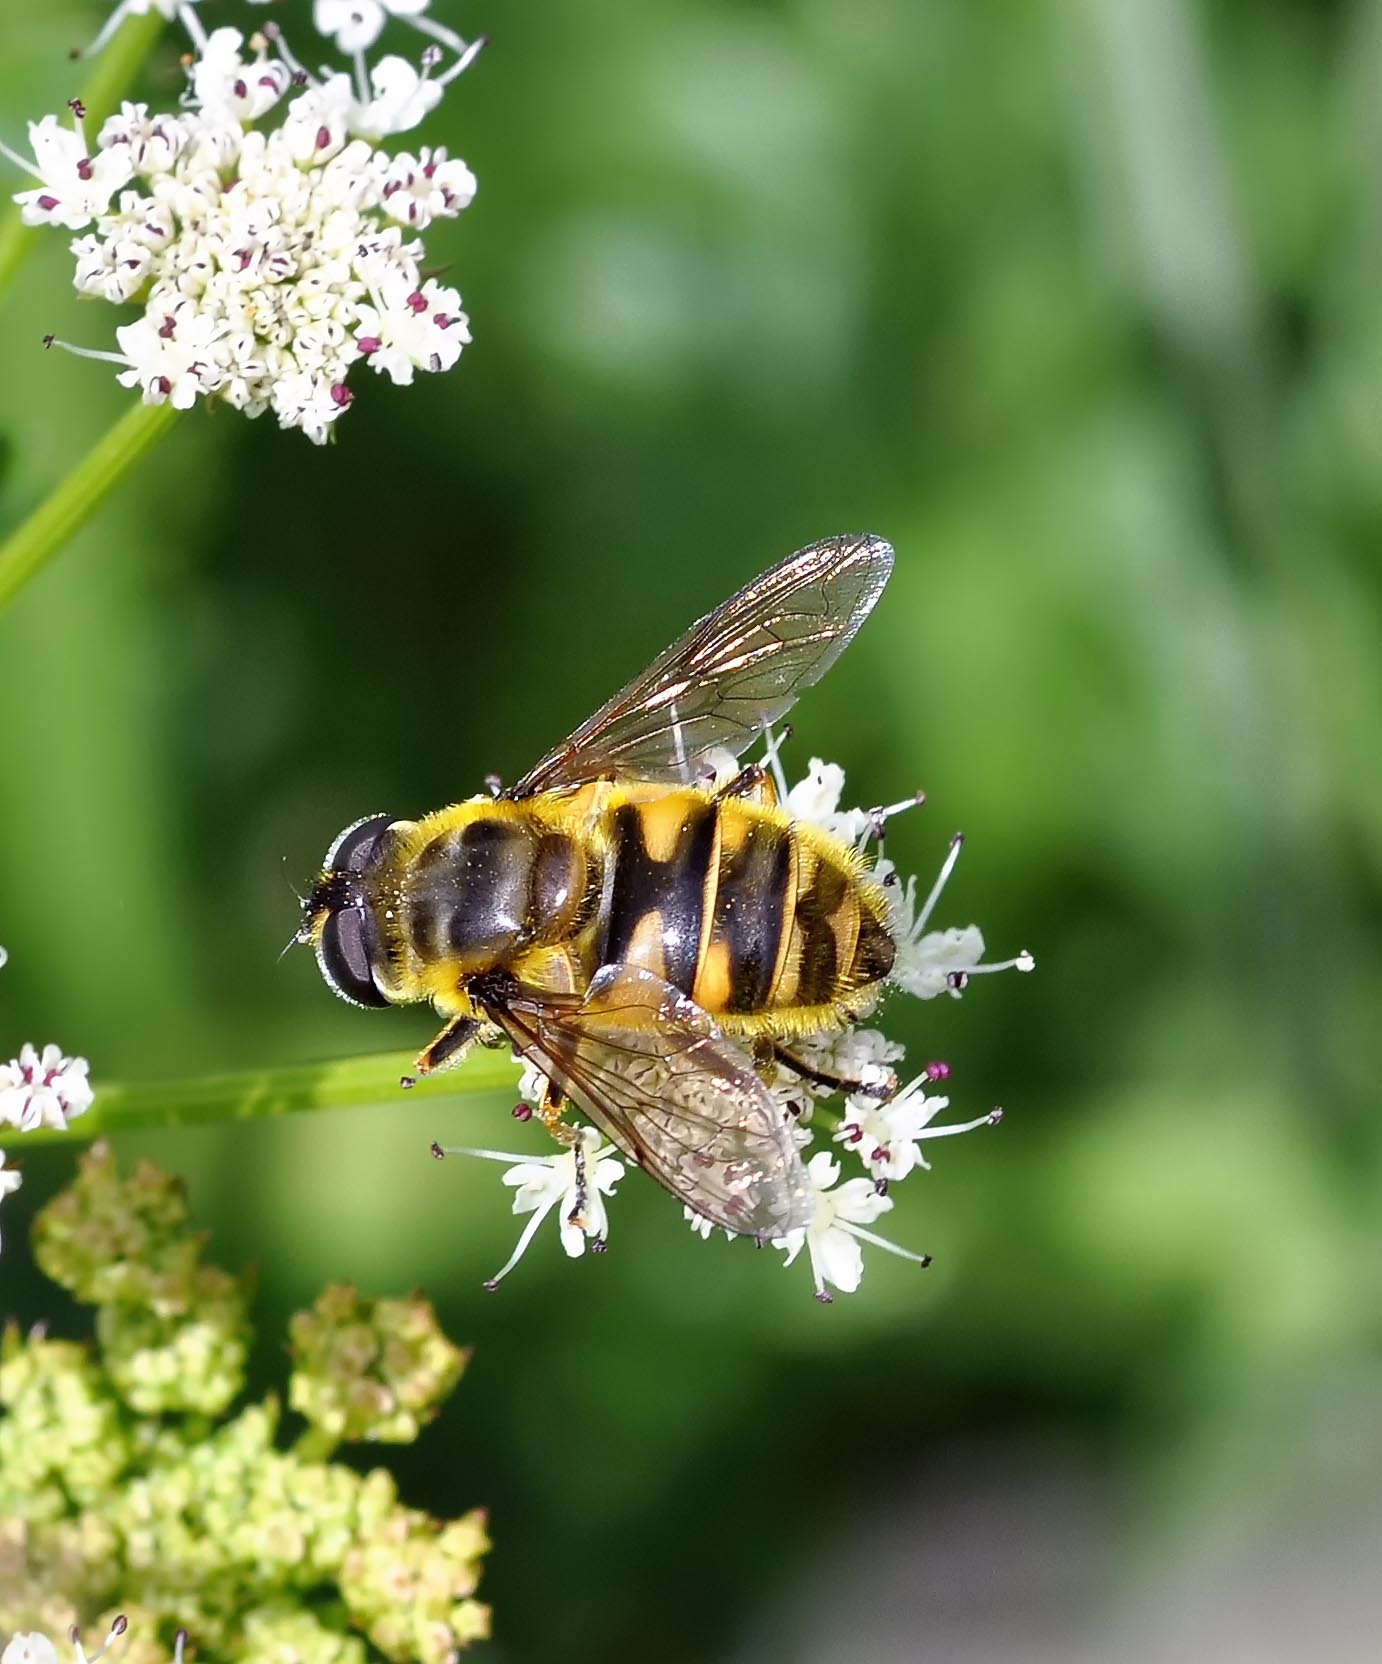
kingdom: Animalia
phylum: Arthropoda
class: Insecta
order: Diptera
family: Syrphidae
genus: Myathropa
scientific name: Myathropa florea
